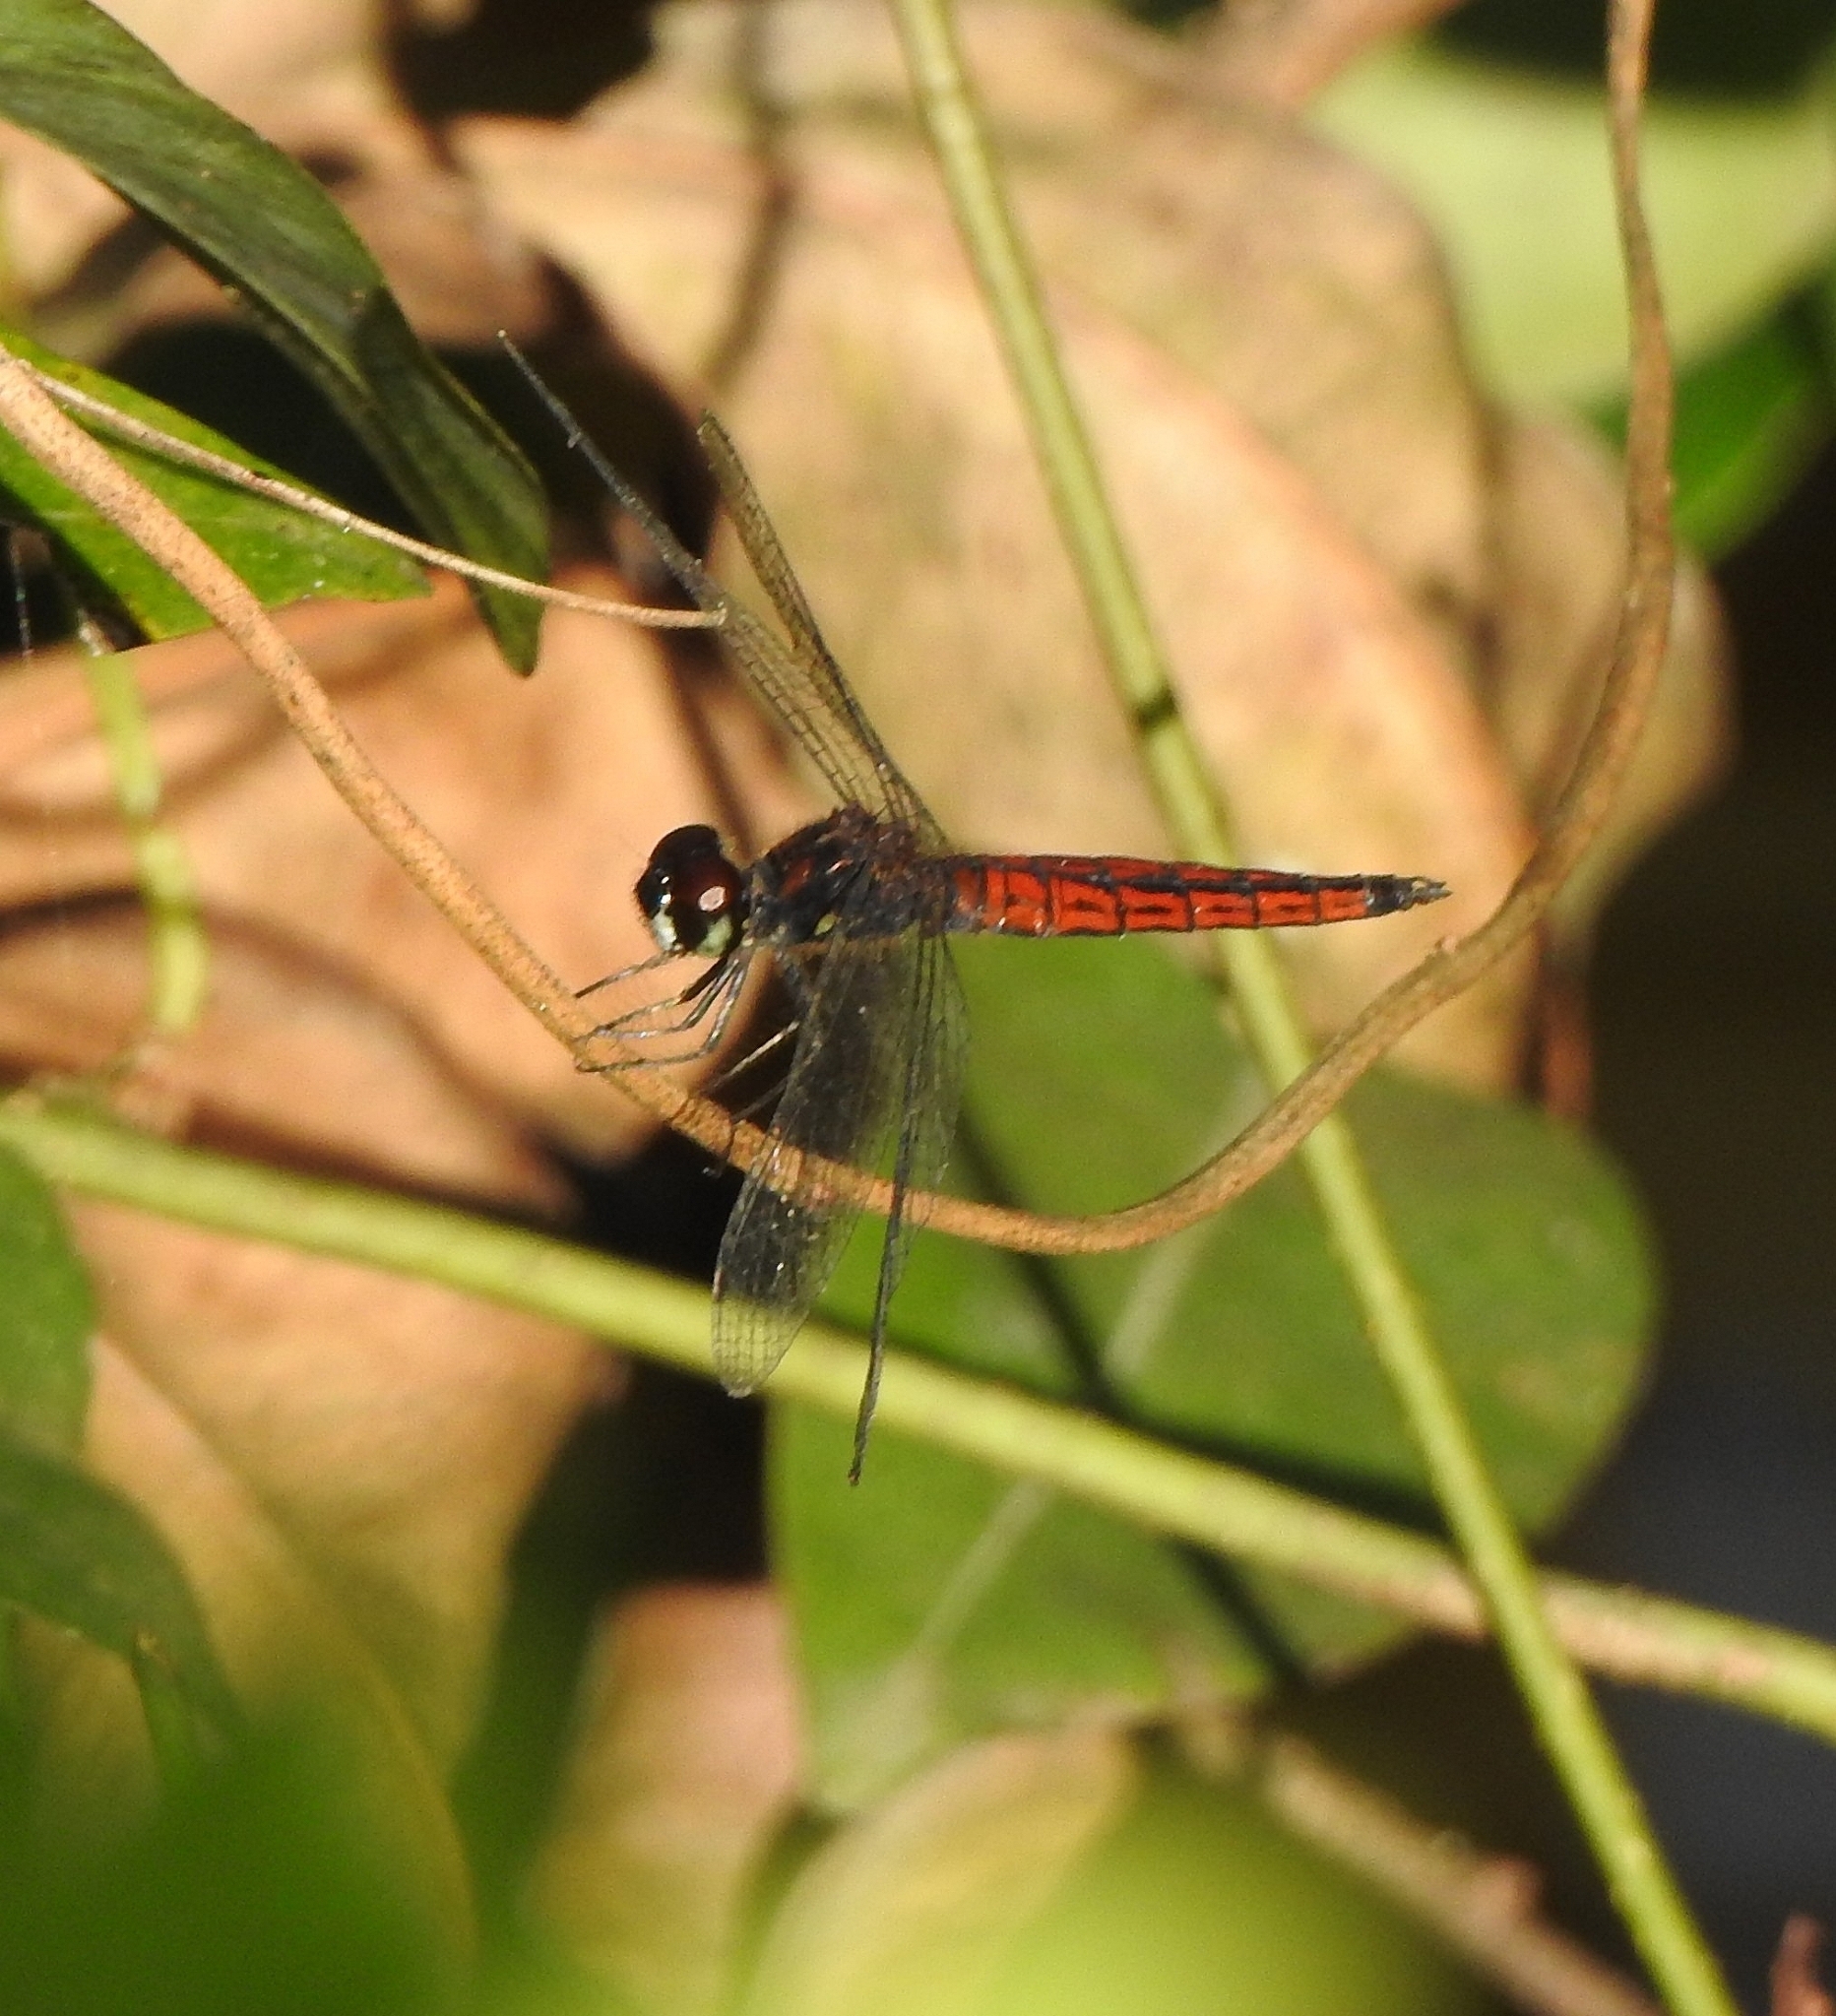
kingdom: Animalia
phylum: Arthropoda
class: Insecta
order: Odonata
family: Libellulidae
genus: Lyriothemis
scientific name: Lyriothemis acigastra
